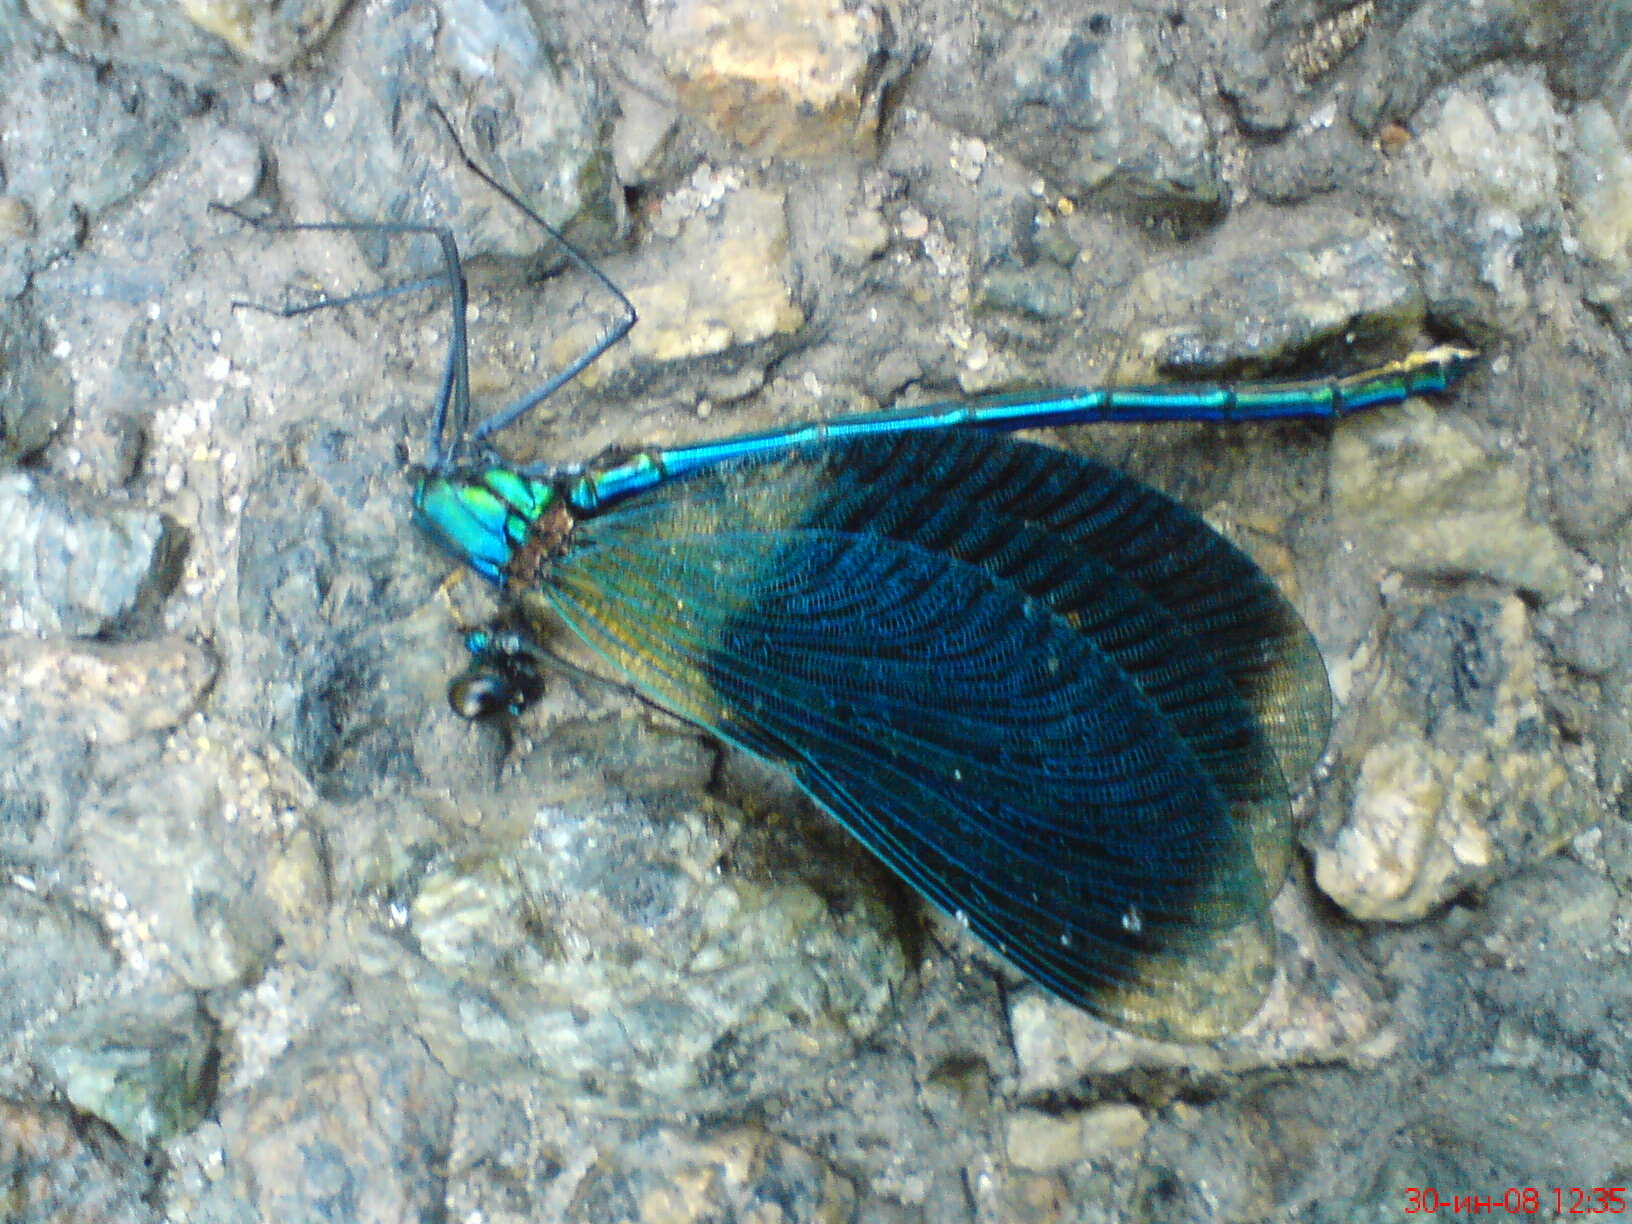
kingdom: Animalia
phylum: Arthropoda
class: Insecta
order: Odonata
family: Calopterygidae
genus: Calopteryx
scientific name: Calopteryx splendens
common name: Banded demoiselle
